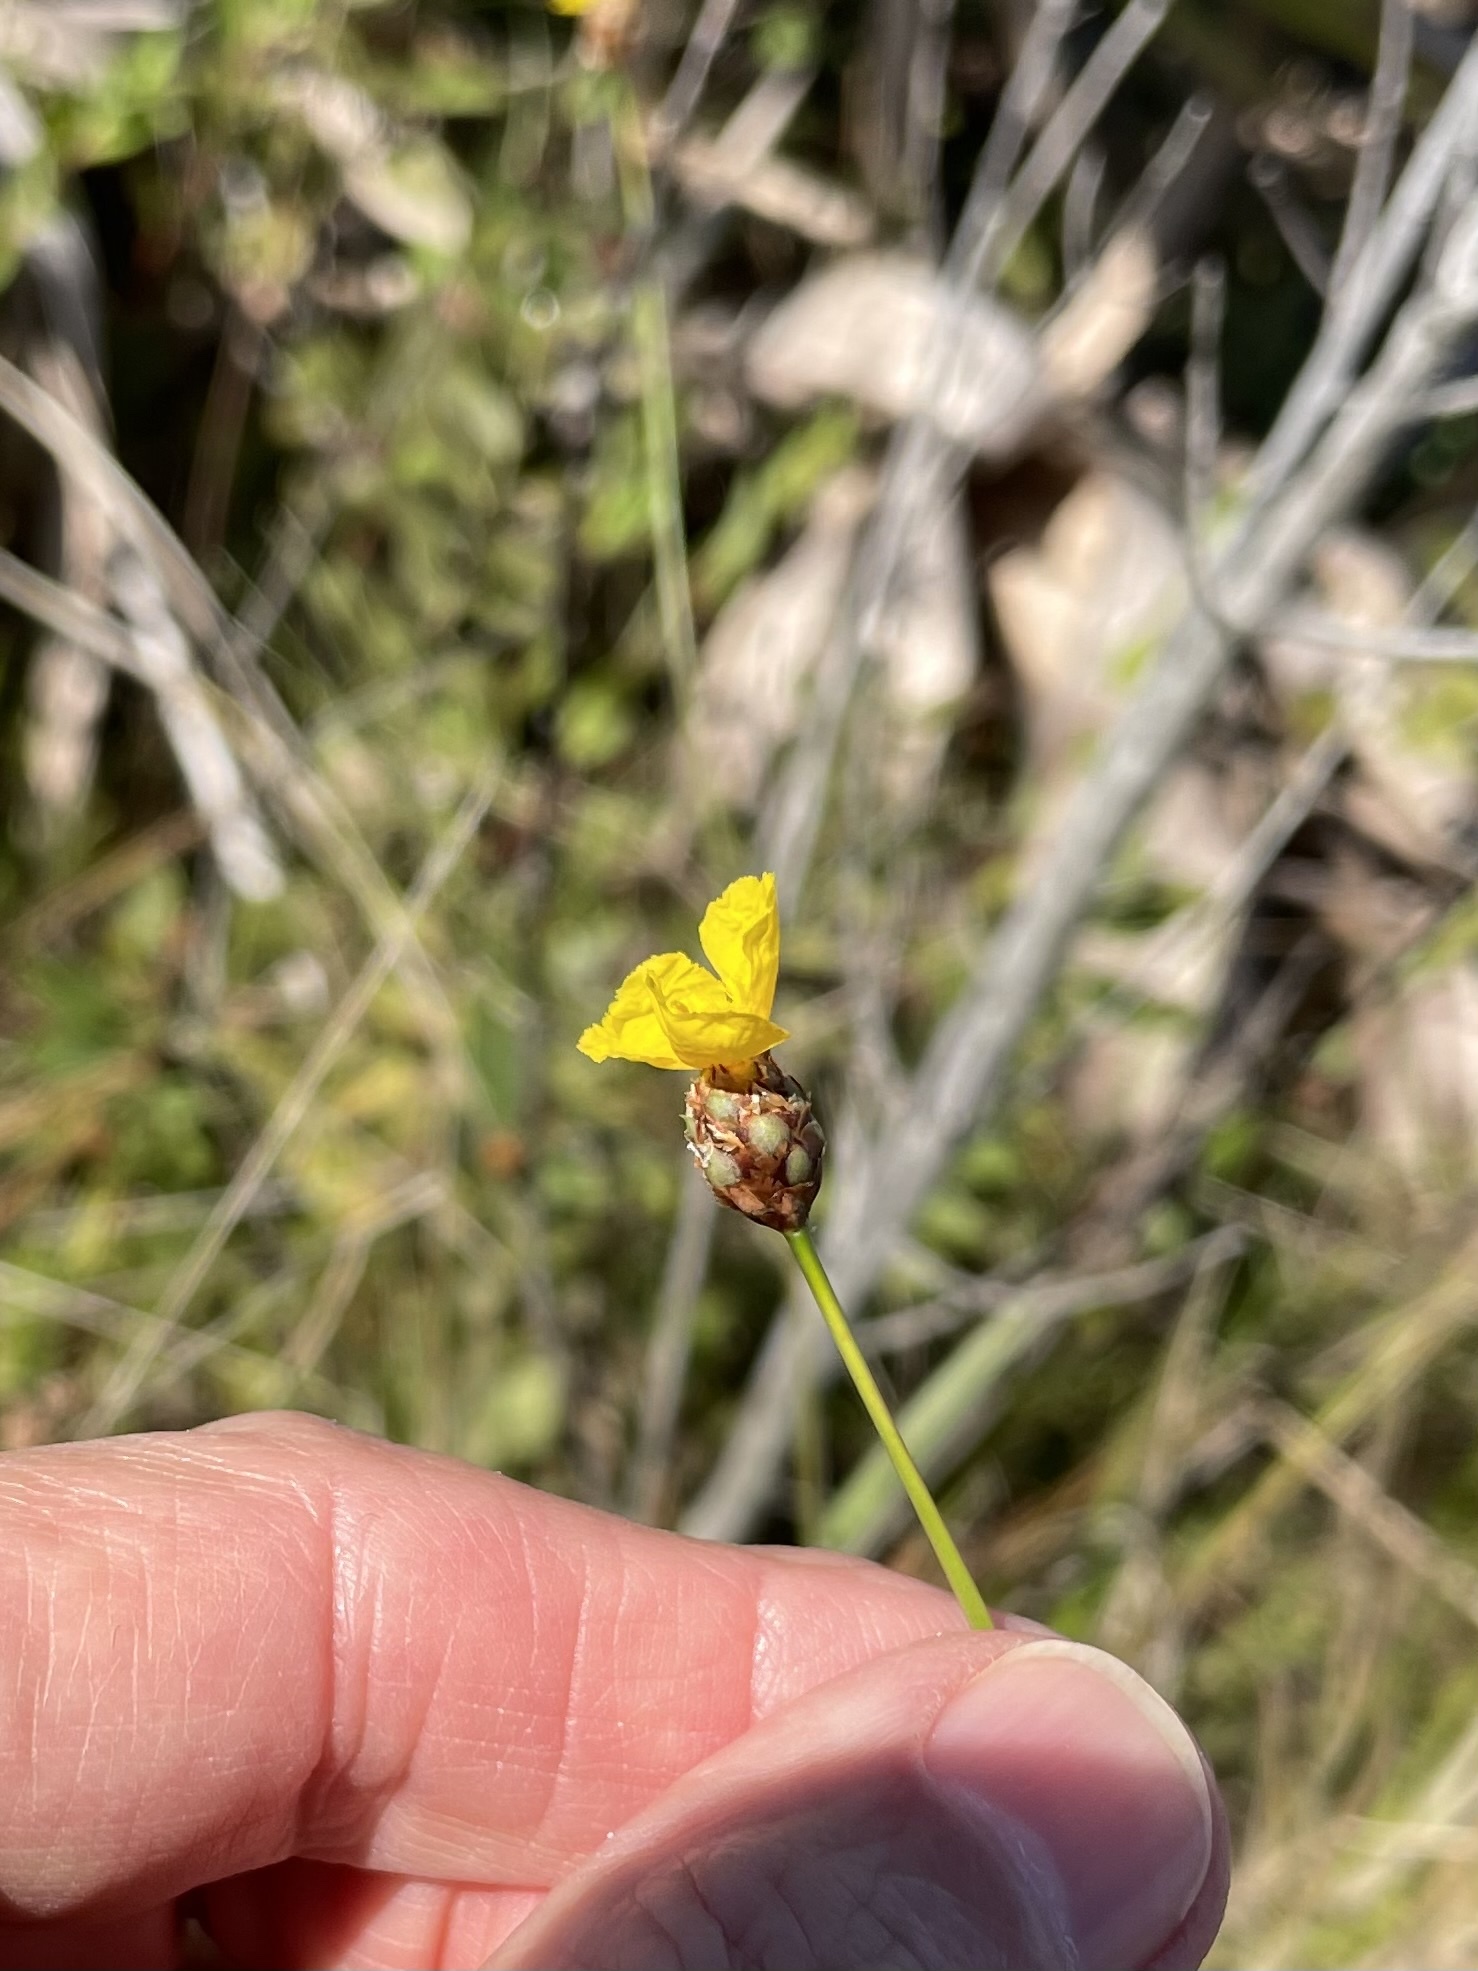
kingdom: Plantae
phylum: Tracheophyta
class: Liliopsida
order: Poales
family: Xyridaceae
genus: Xyris
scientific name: Xyris elliottii
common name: Elliot's yelloweyed grass
